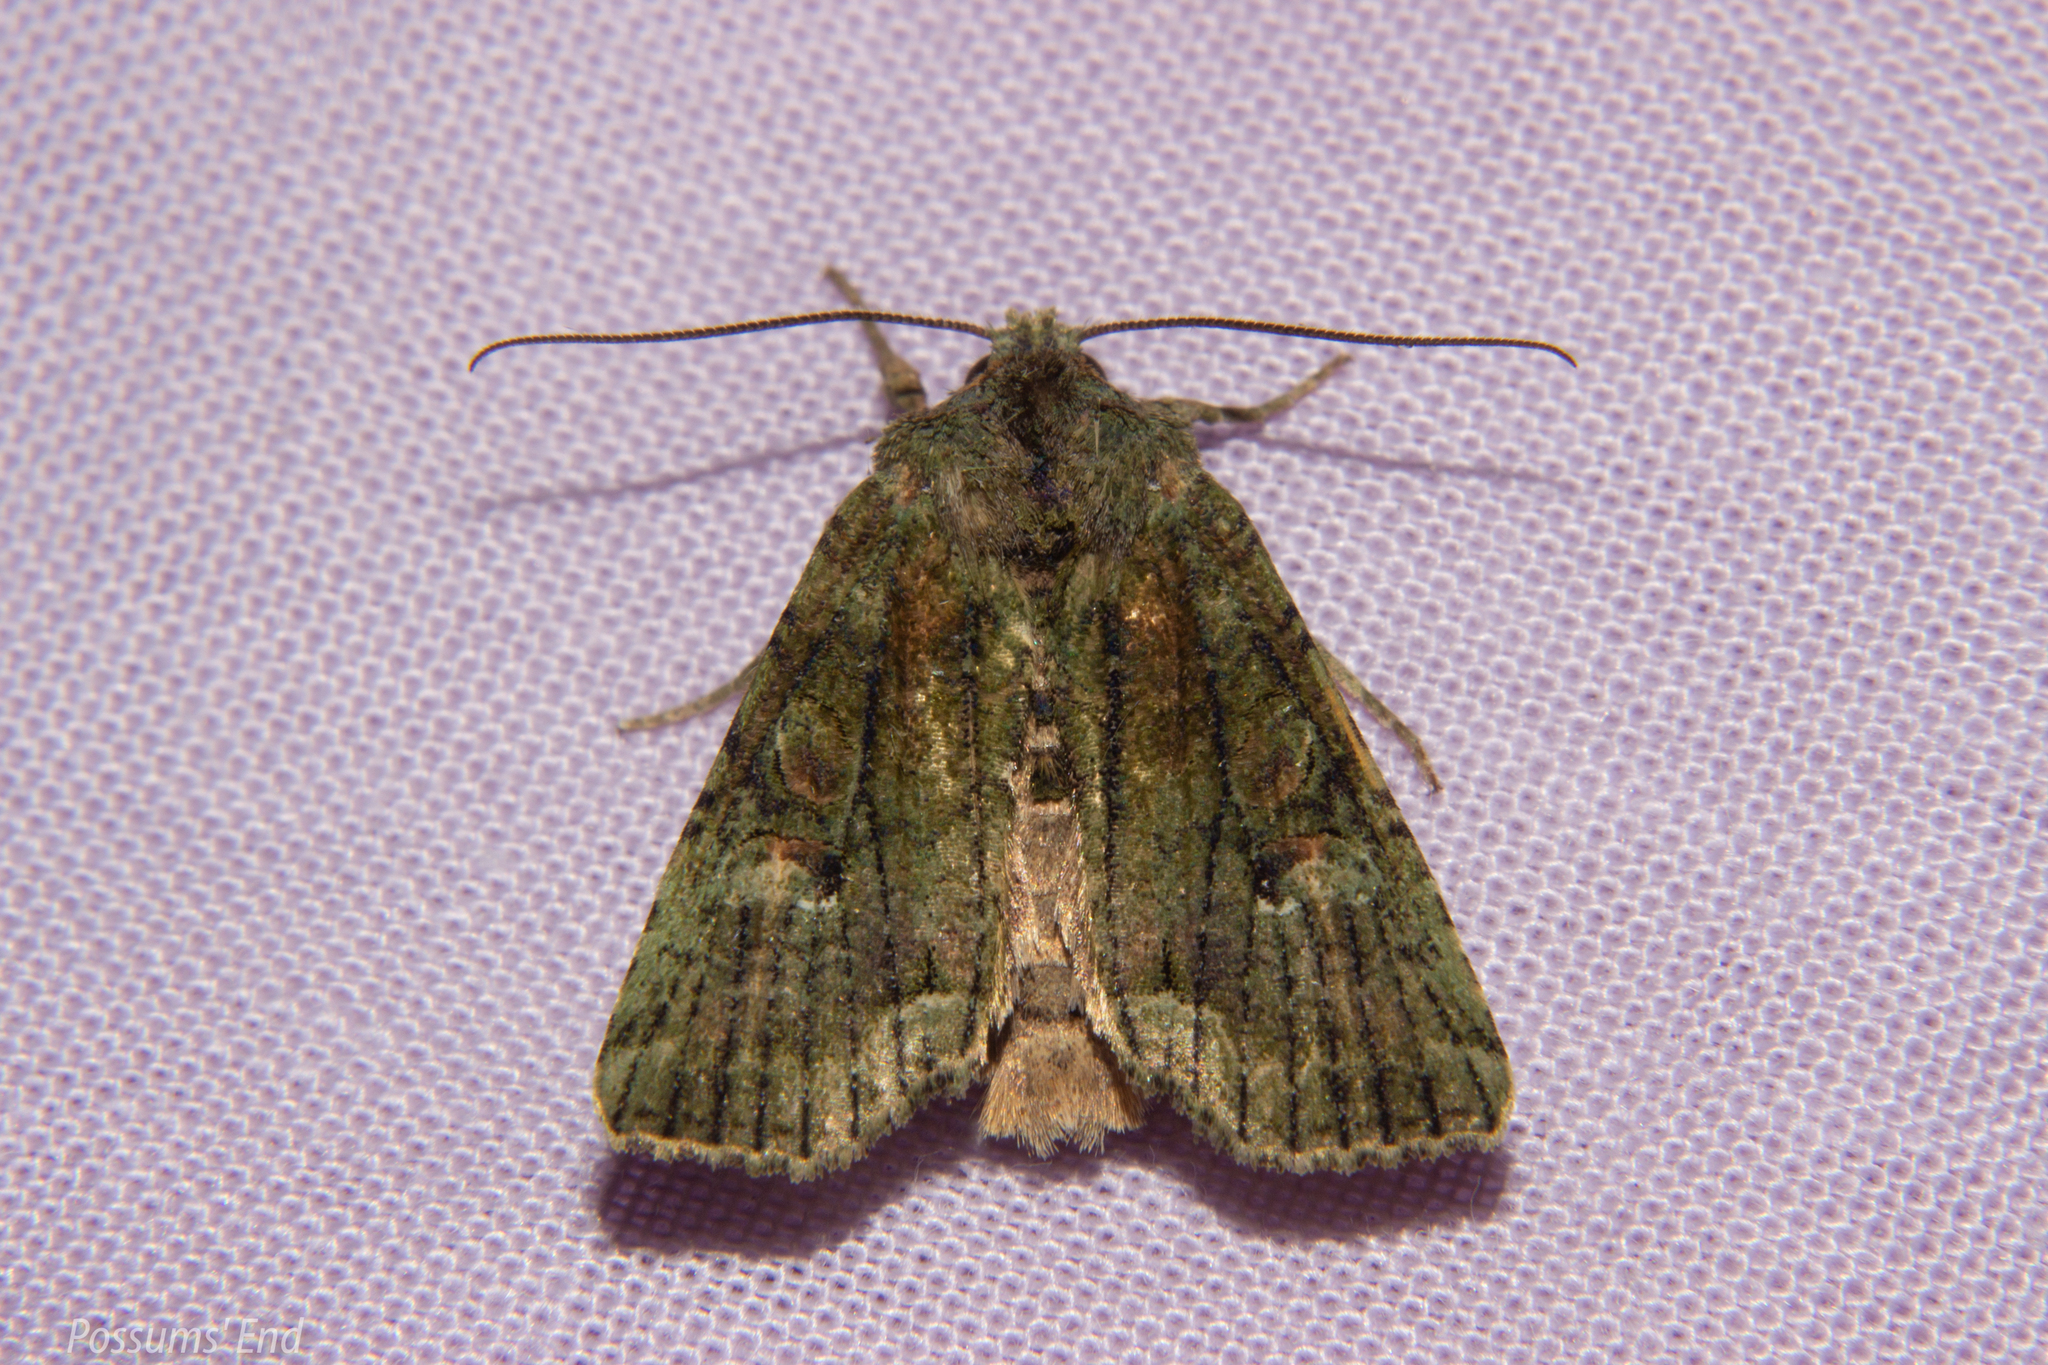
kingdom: Animalia
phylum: Arthropoda
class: Insecta
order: Lepidoptera
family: Noctuidae
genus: Meterana
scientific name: Meterana levis
